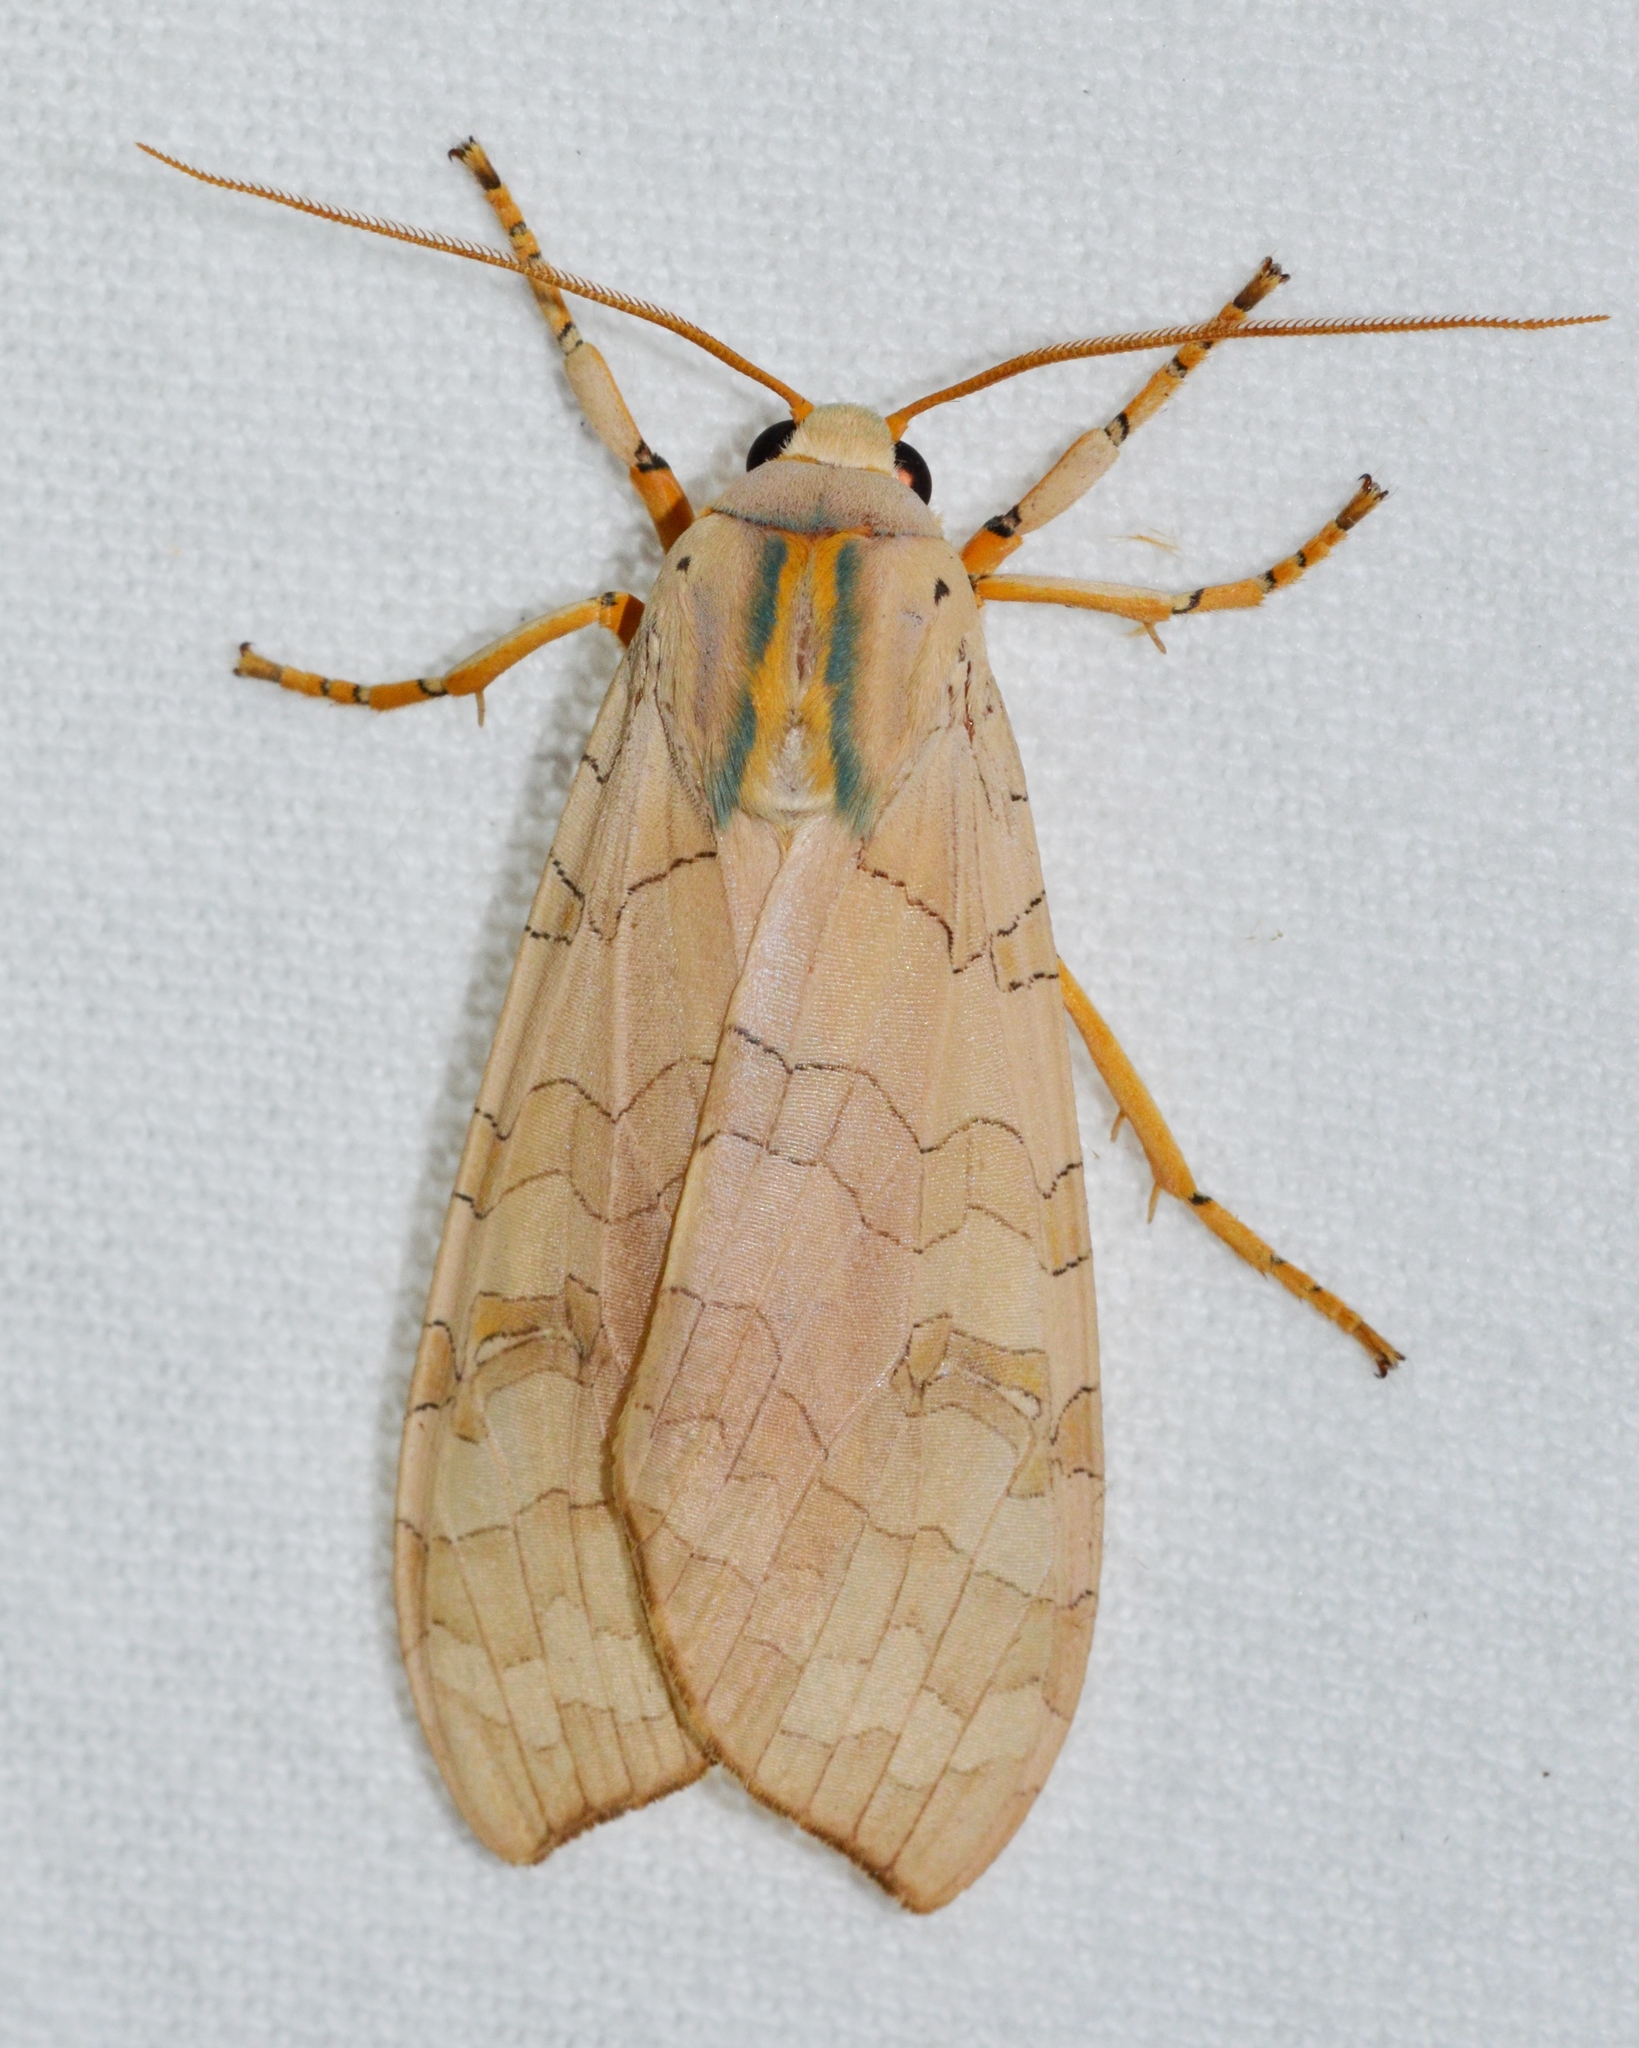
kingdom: Animalia
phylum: Arthropoda
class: Insecta
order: Lepidoptera
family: Erebidae
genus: Halysidota
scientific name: Halysidota
